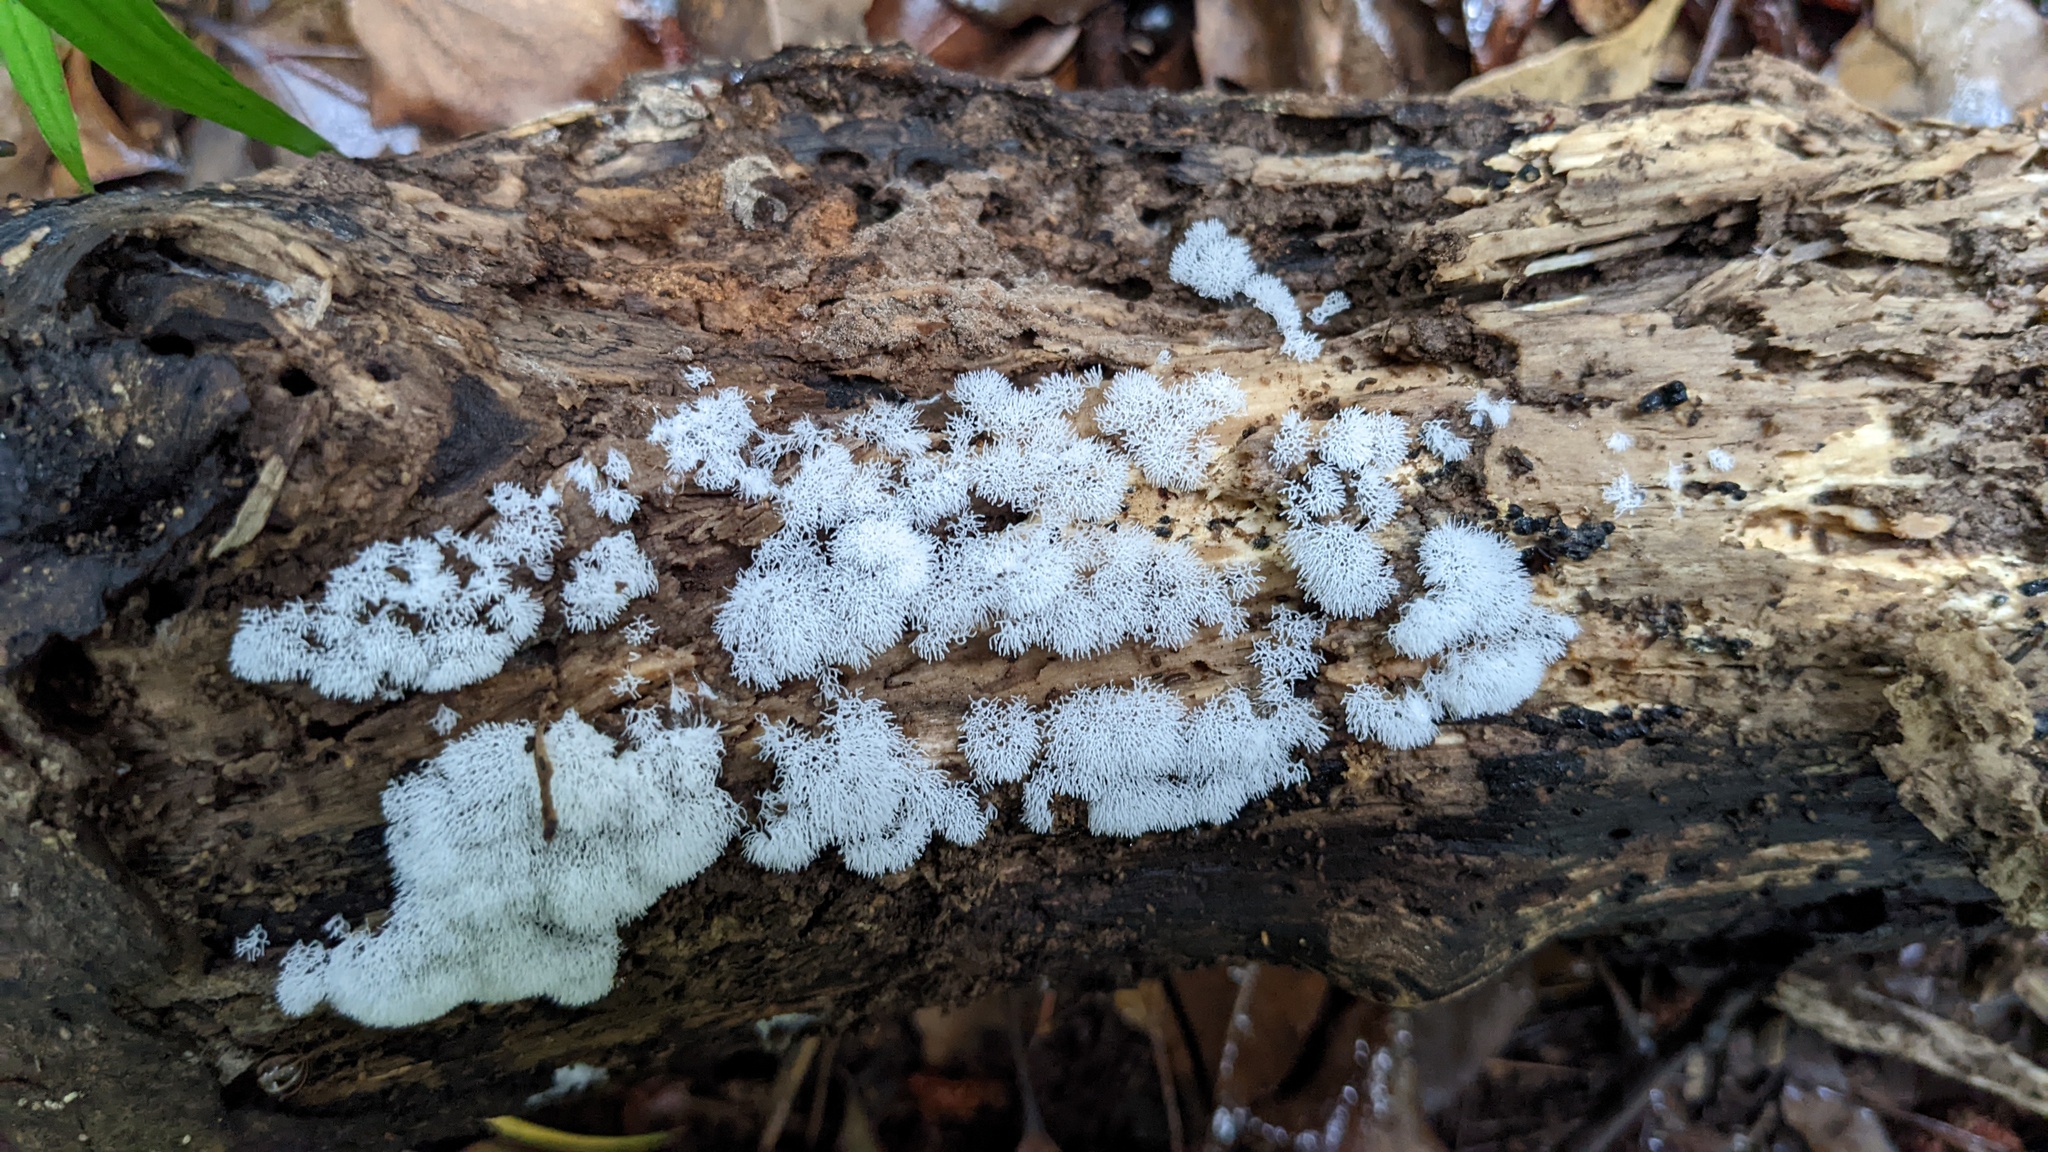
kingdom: Protozoa
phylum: Mycetozoa
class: Protosteliomycetes
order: Ceratiomyxales
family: Ceratiomyxaceae
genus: Ceratiomyxa
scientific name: Ceratiomyxa fruticulosa
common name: Honeycomb coral slime mold
